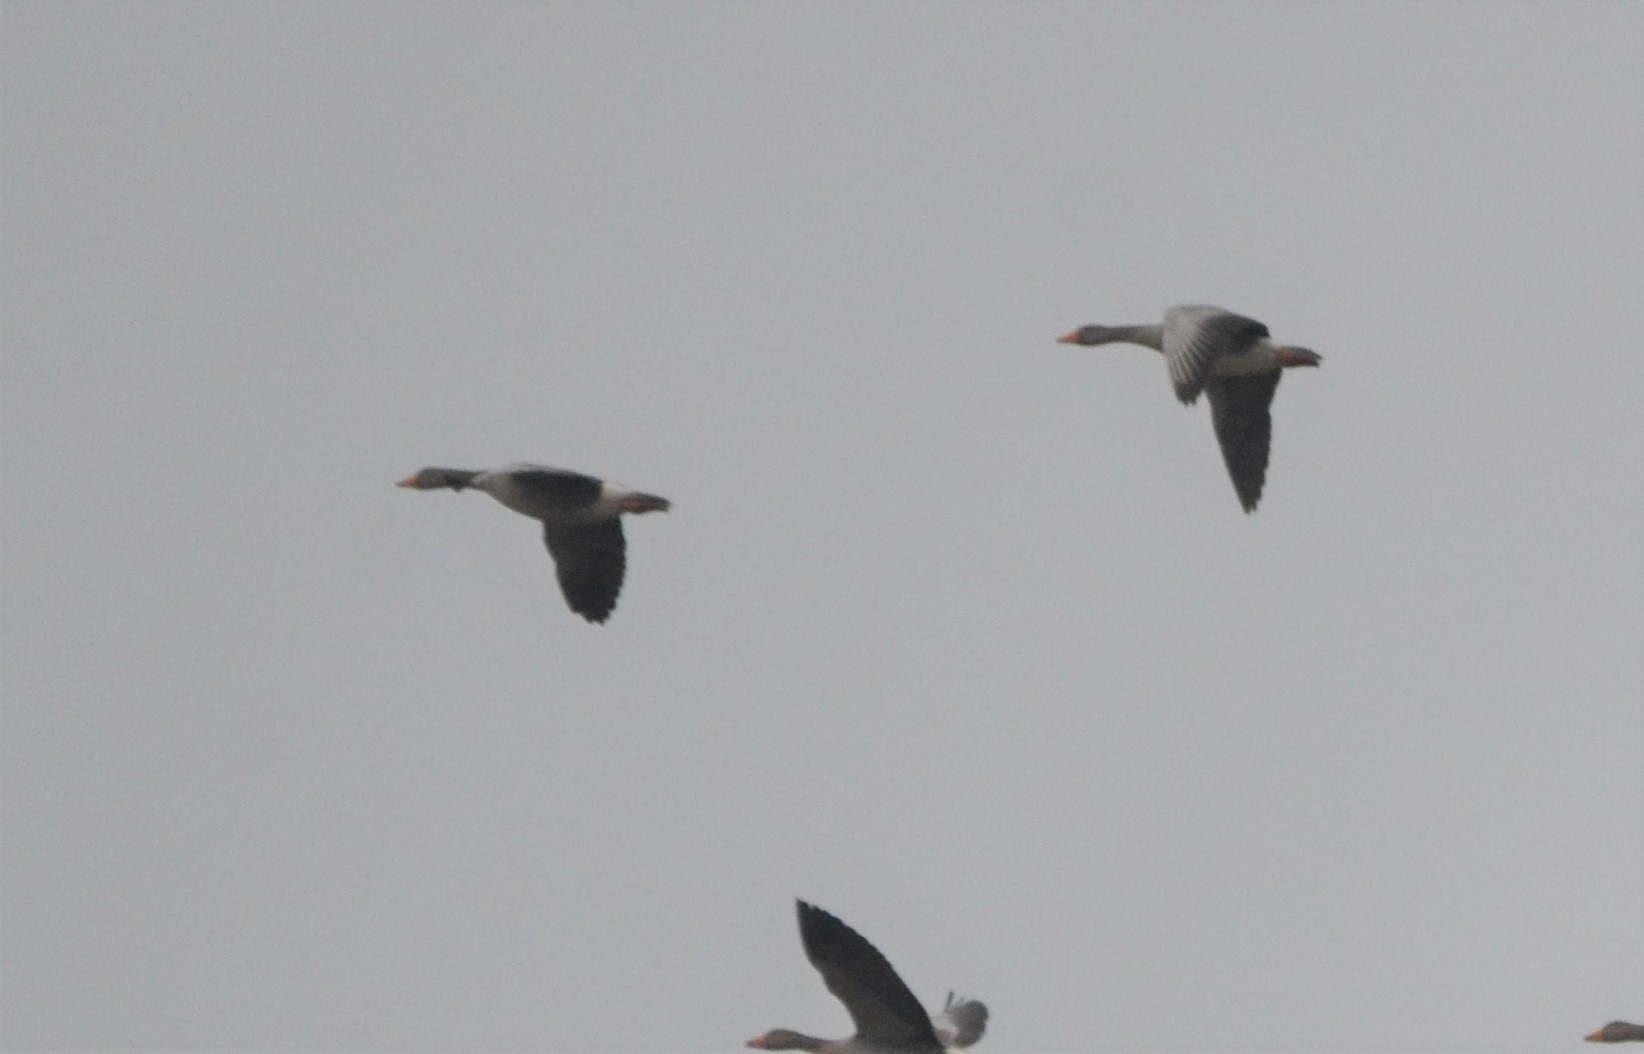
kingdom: Animalia
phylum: Chordata
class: Aves
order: Anseriformes
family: Anatidae
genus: Anser
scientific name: Anser anser
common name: Greylag goose
